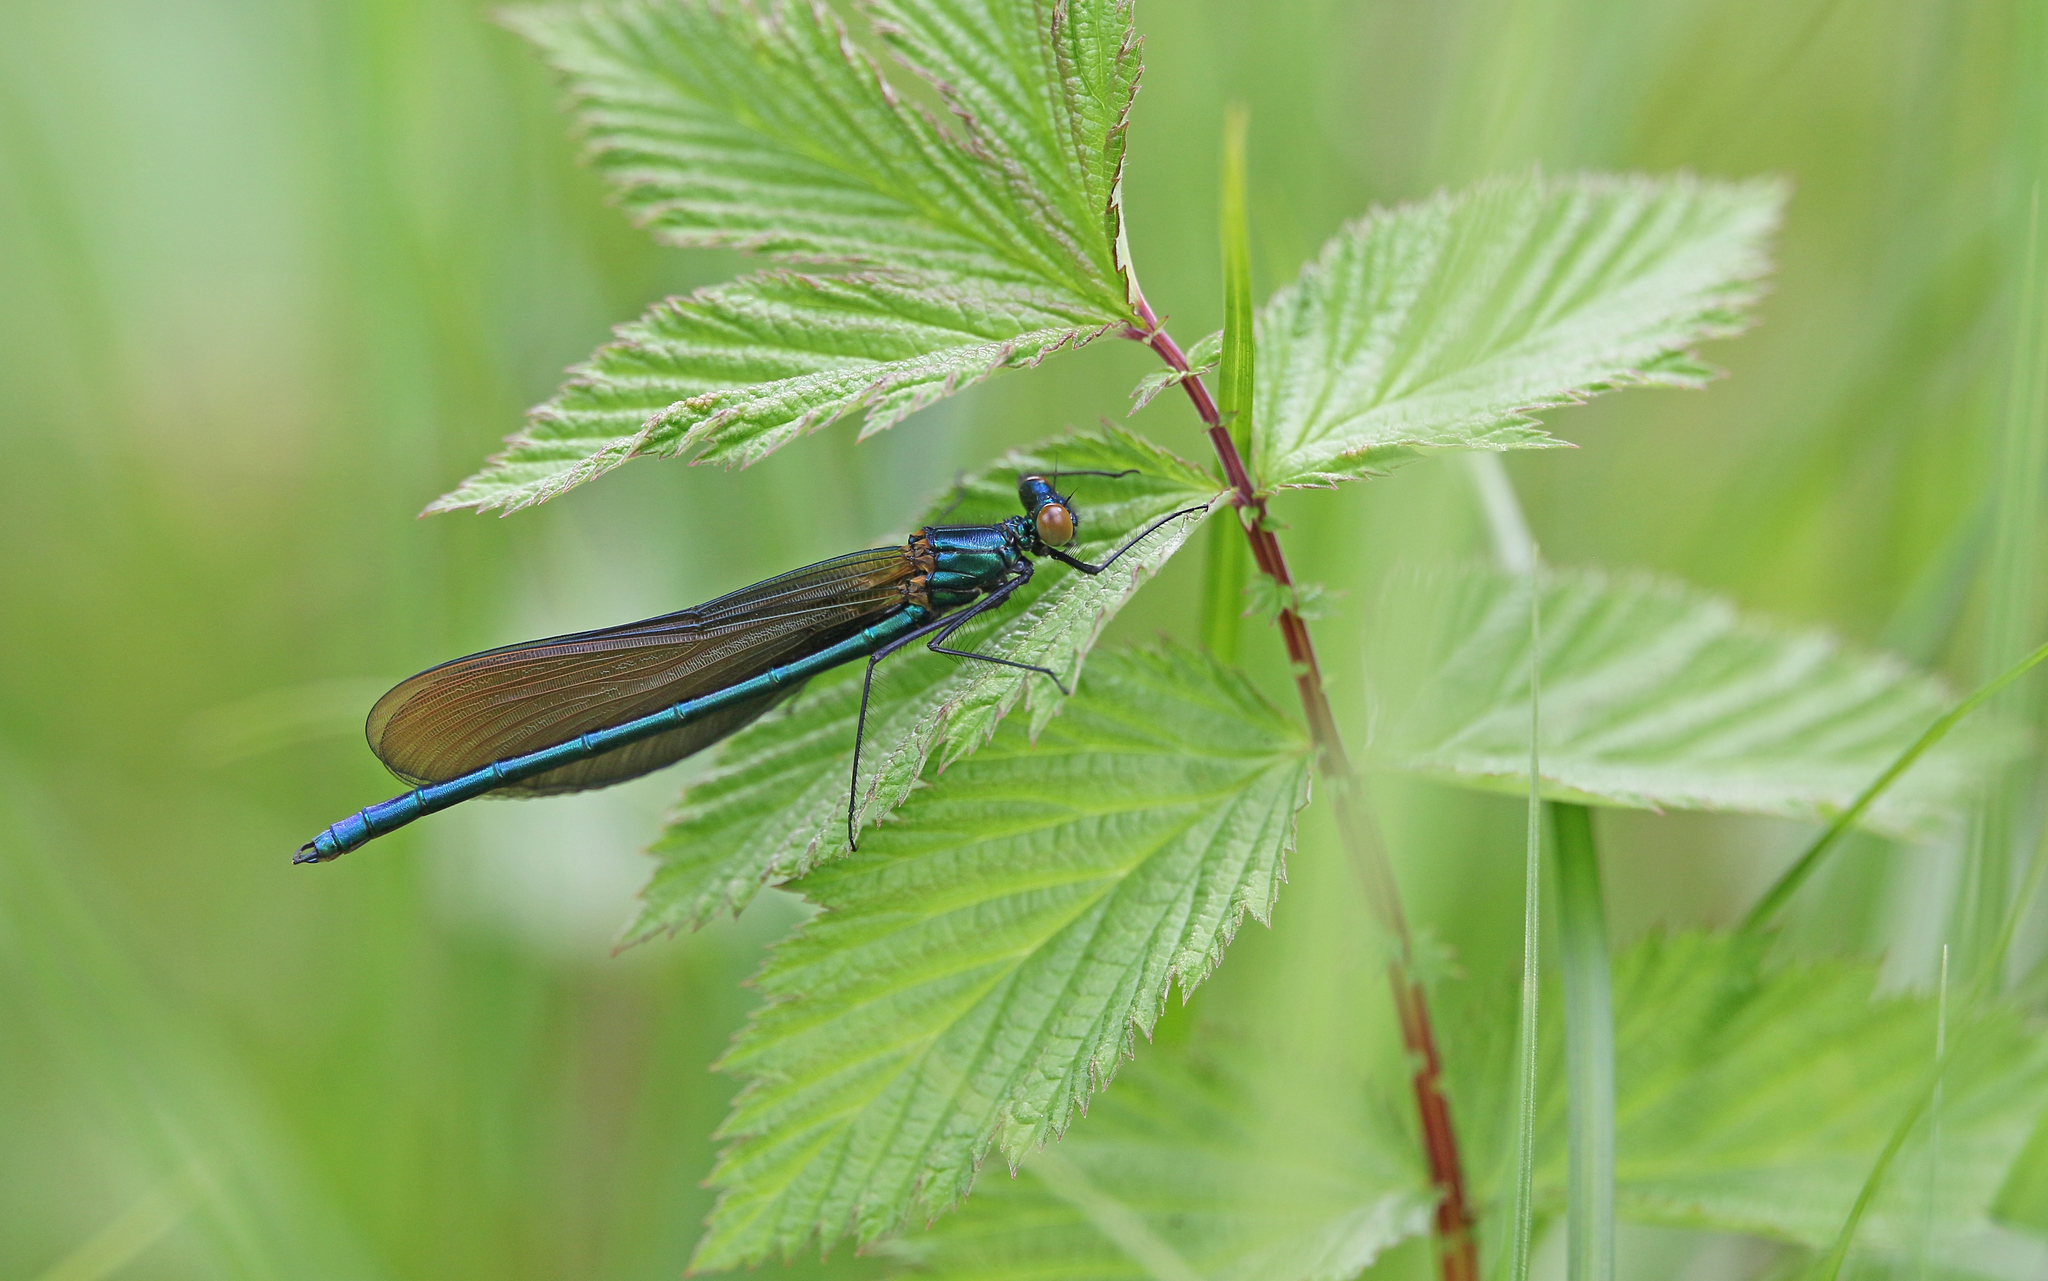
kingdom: Animalia
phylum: Arthropoda
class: Insecta
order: Odonata
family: Calopterygidae
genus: Calopteryx
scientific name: Calopteryx virgo
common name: Beautiful demoiselle
